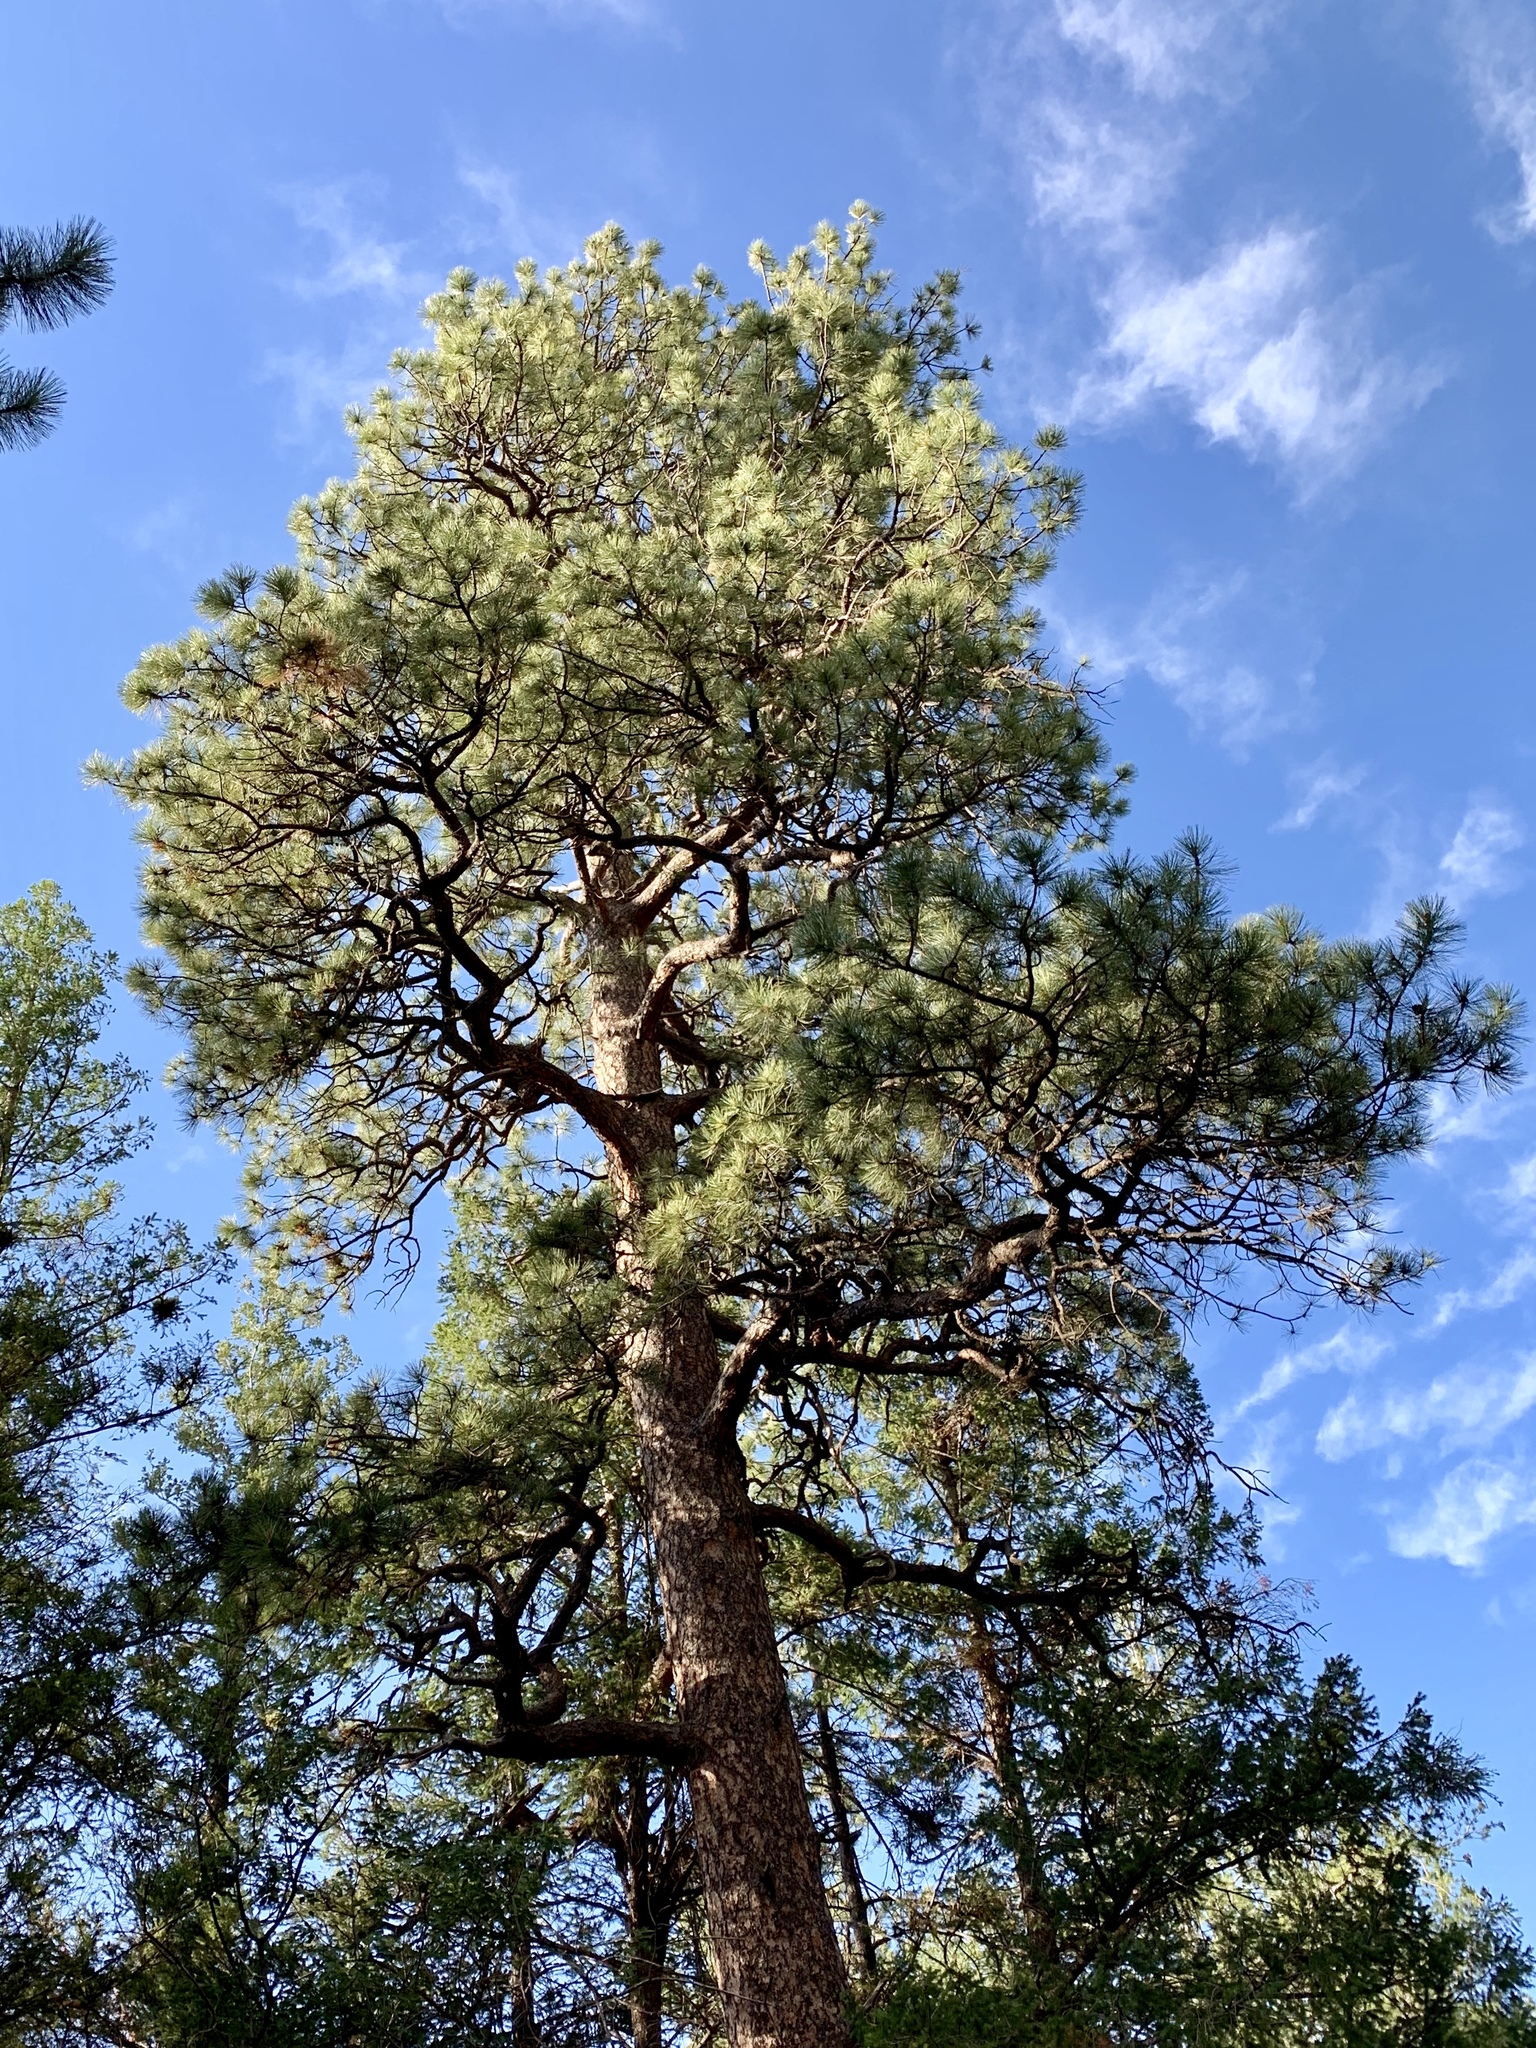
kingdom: Plantae
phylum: Tracheophyta
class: Pinopsida
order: Pinales
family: Pinaceae
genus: Pinus
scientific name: Pinus ponderosa
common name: Western yellow-pine
